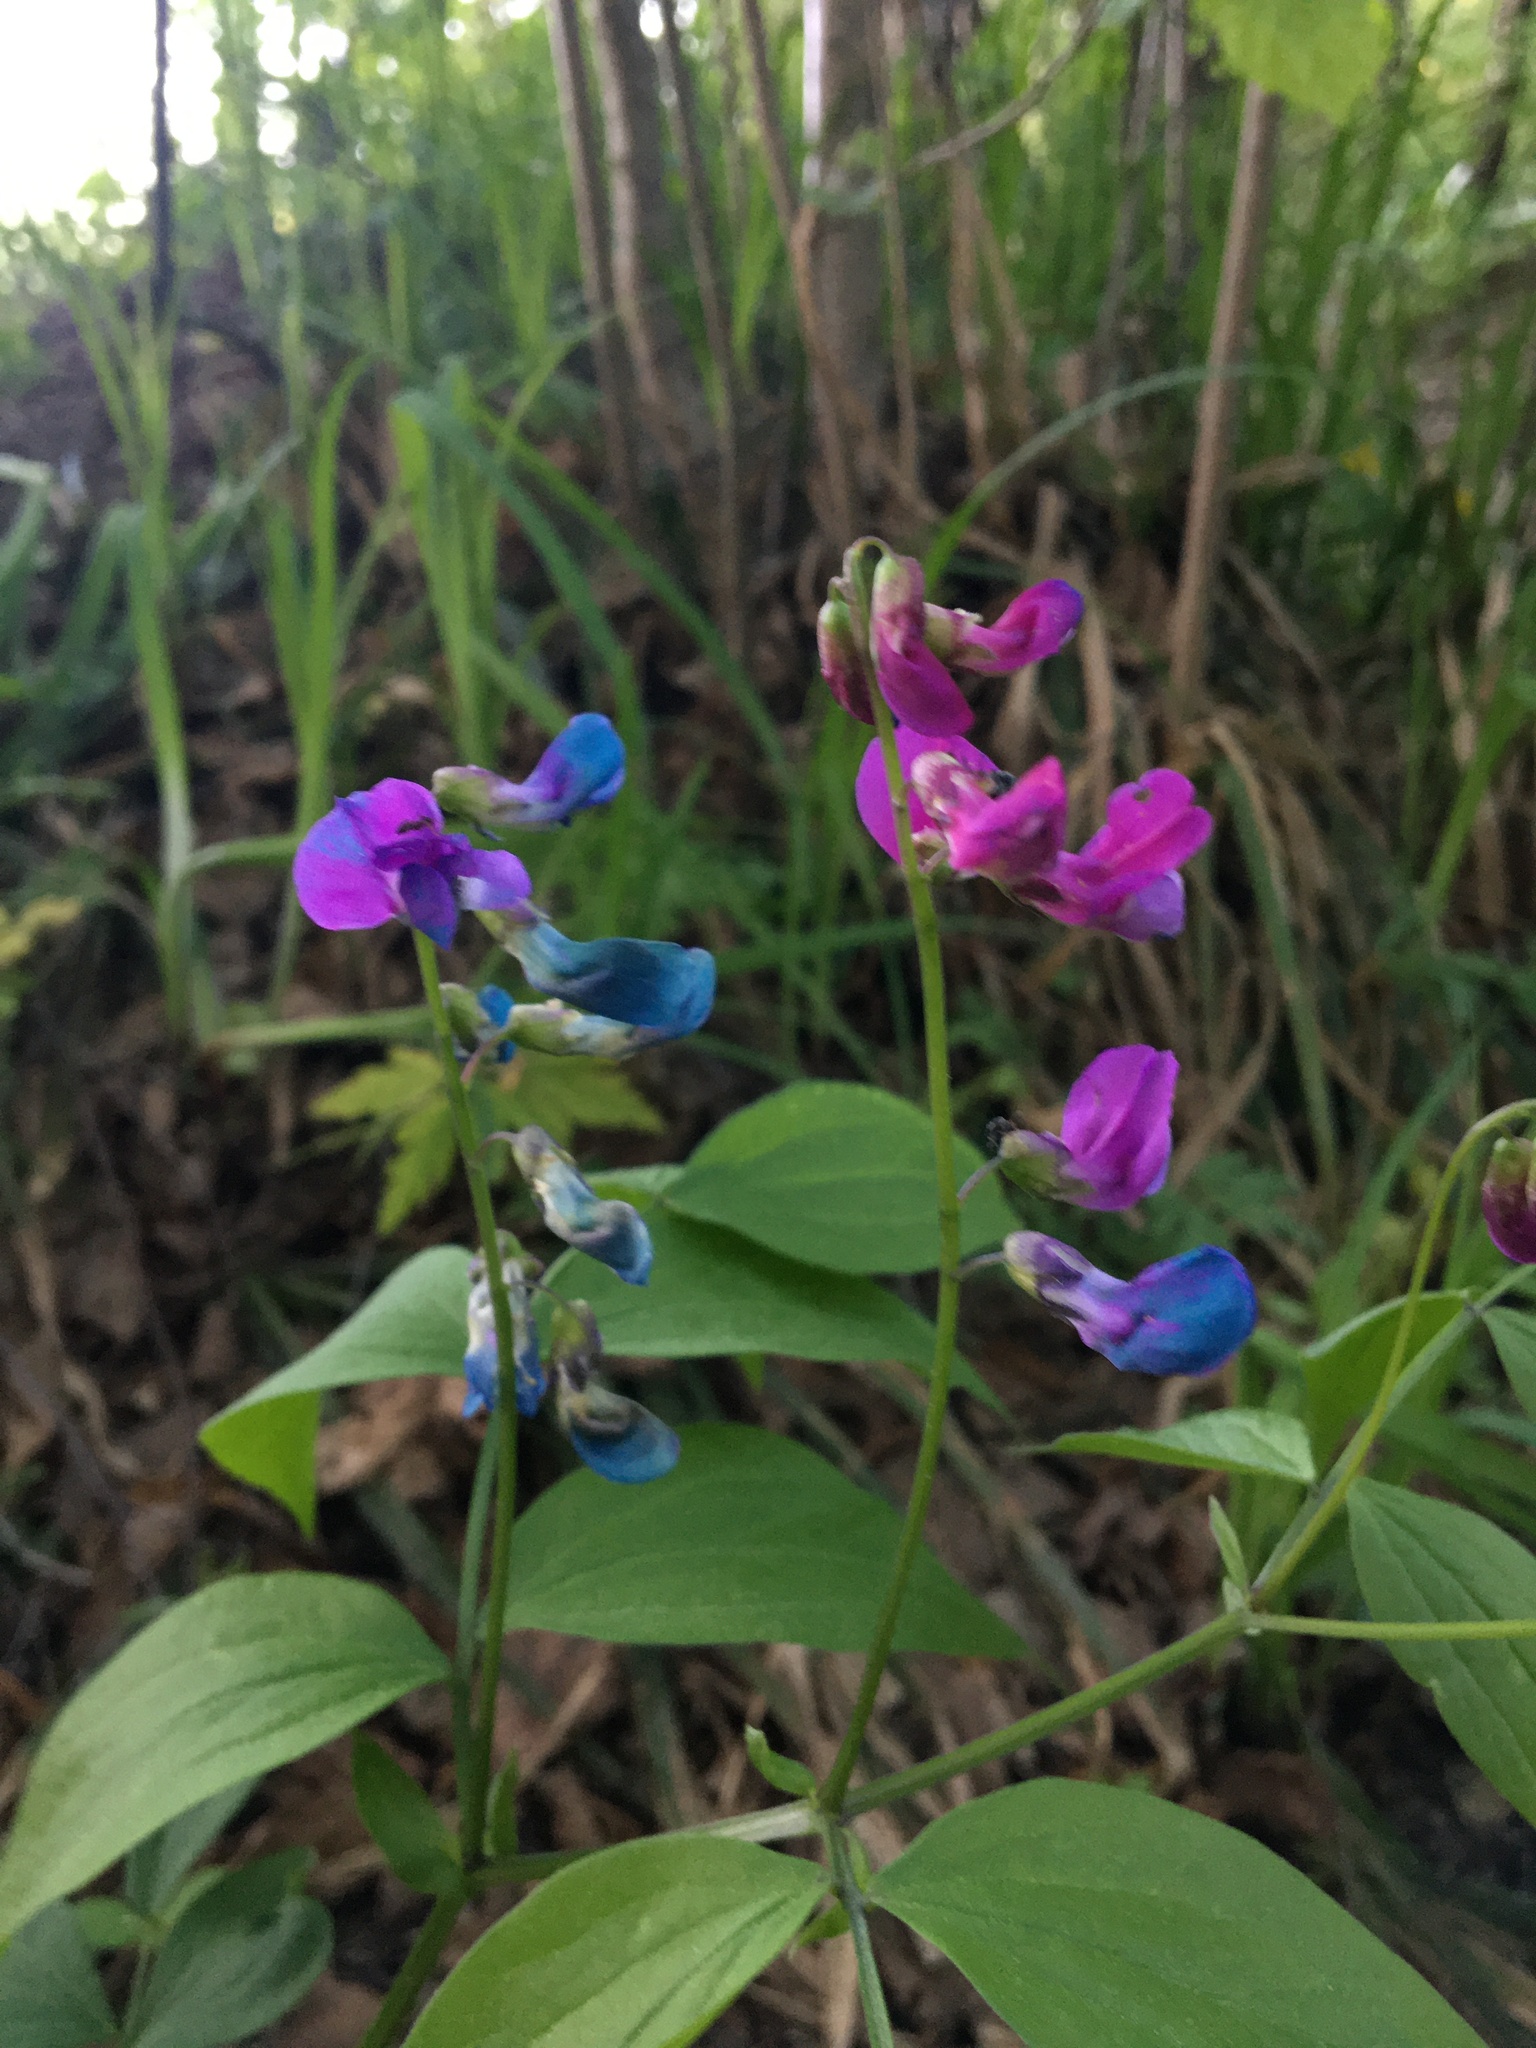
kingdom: Plantae
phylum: Tracheophyta
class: Magnoliopsida
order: Fabales
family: Fabaceae
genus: Lathyrus
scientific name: Lathyrus vernus
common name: Spring pea
